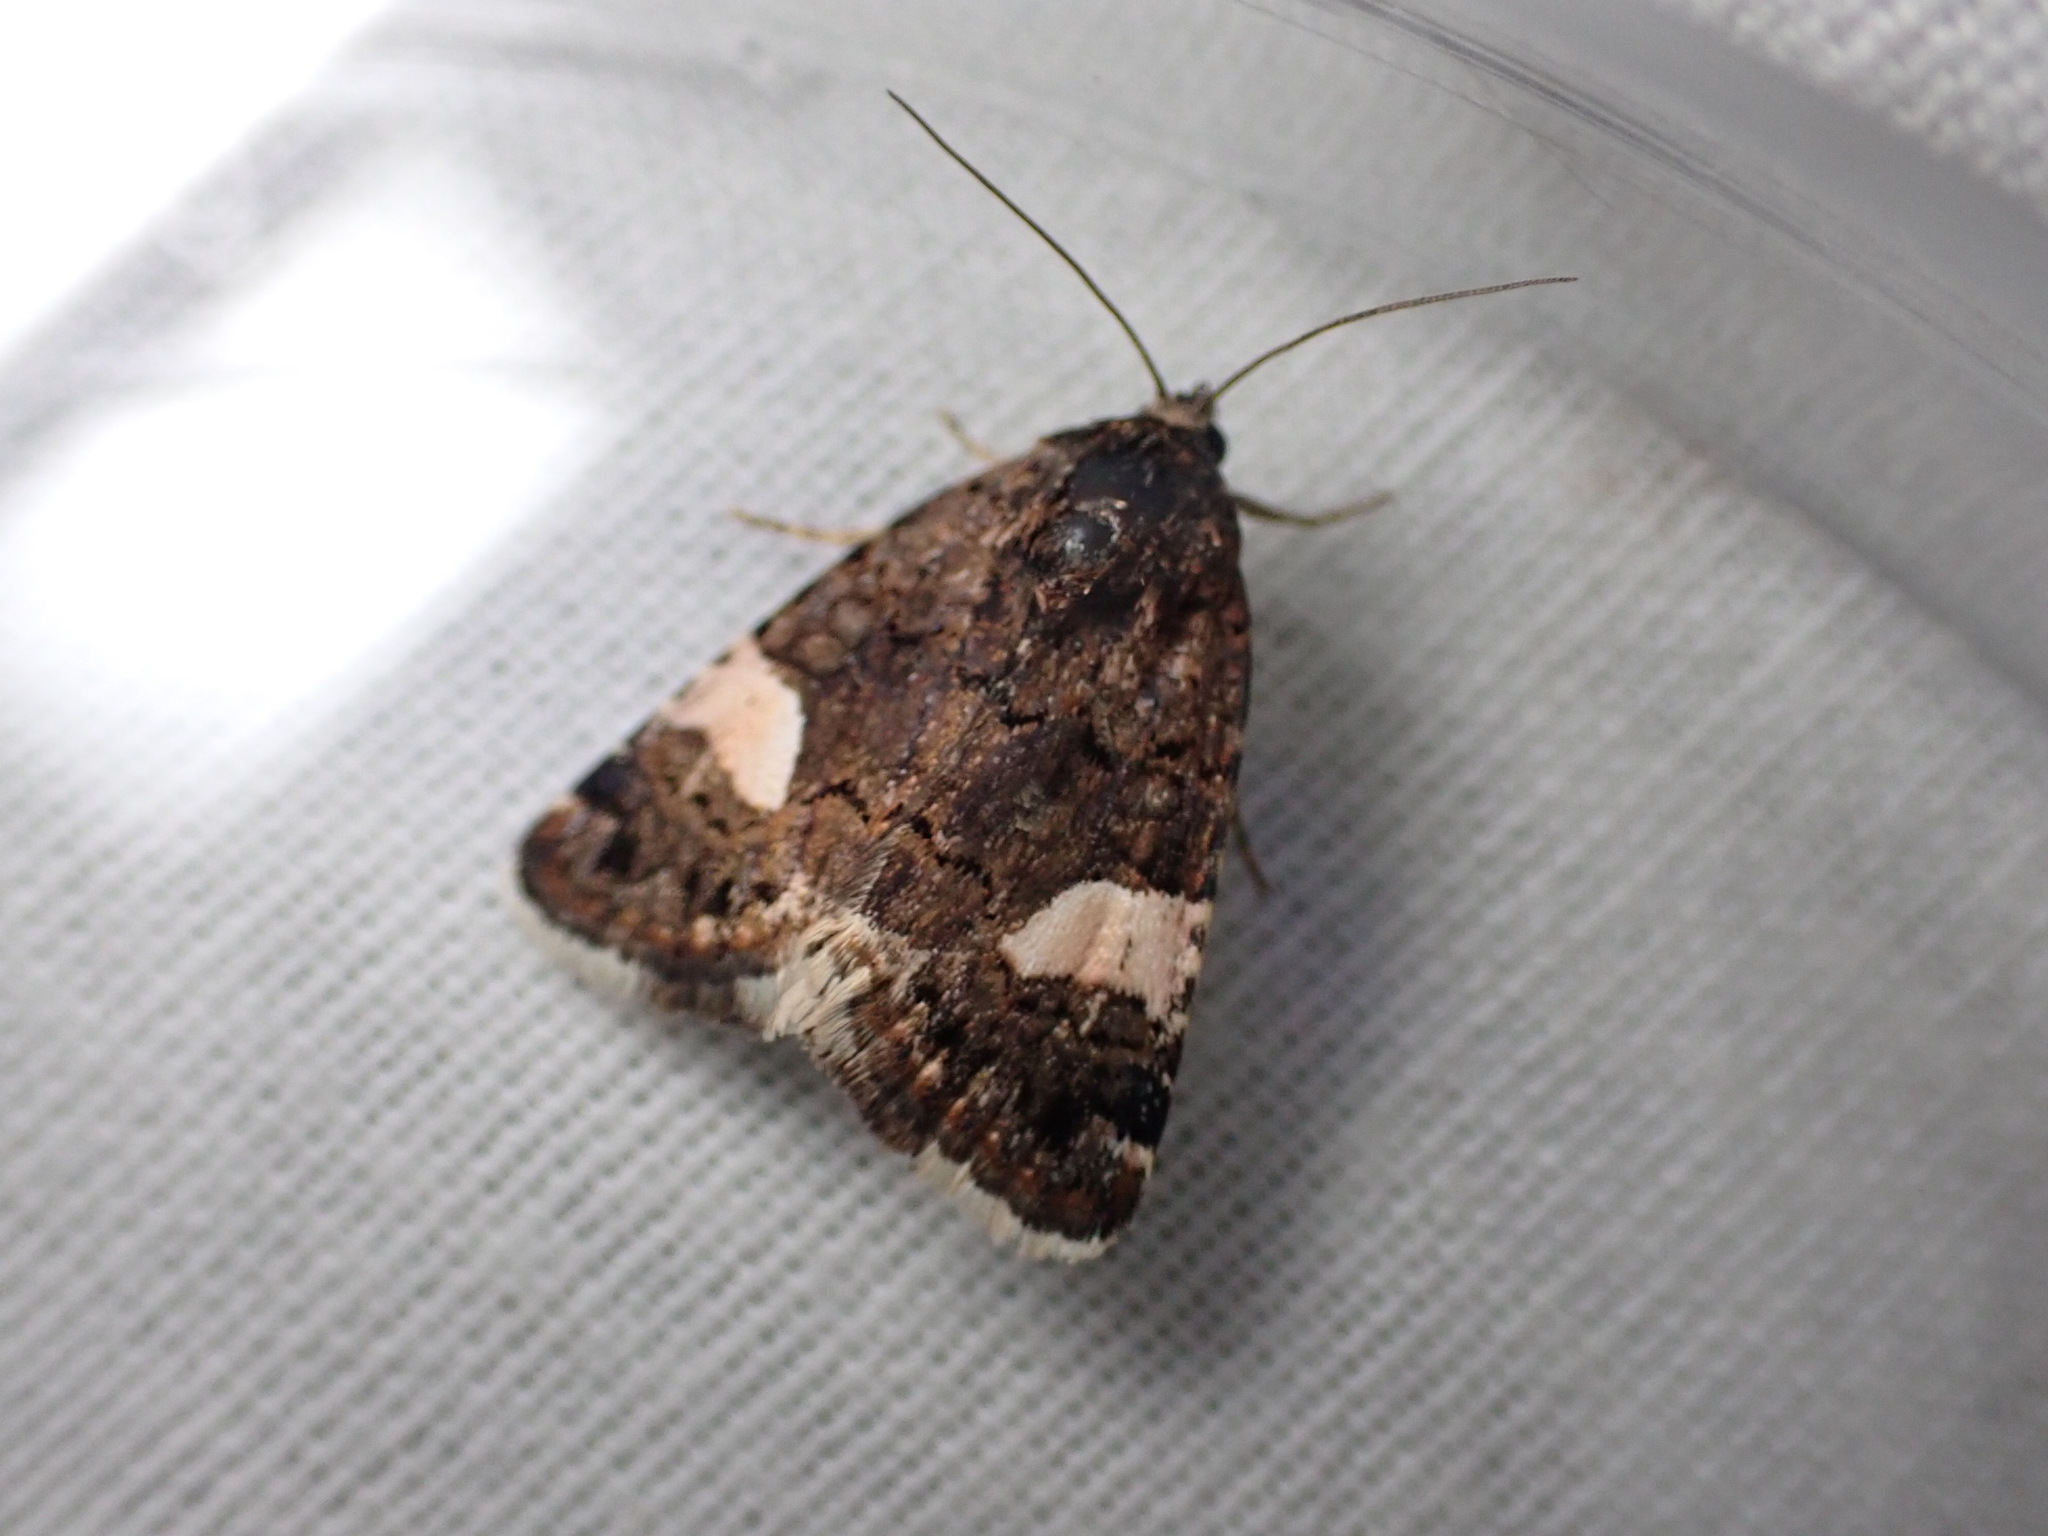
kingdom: Animalia
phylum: Arthropoda
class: Insecta
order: Lepidoptera
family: Erebidae
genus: Tyta
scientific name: Tyta luctuosa
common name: Four-spotted
